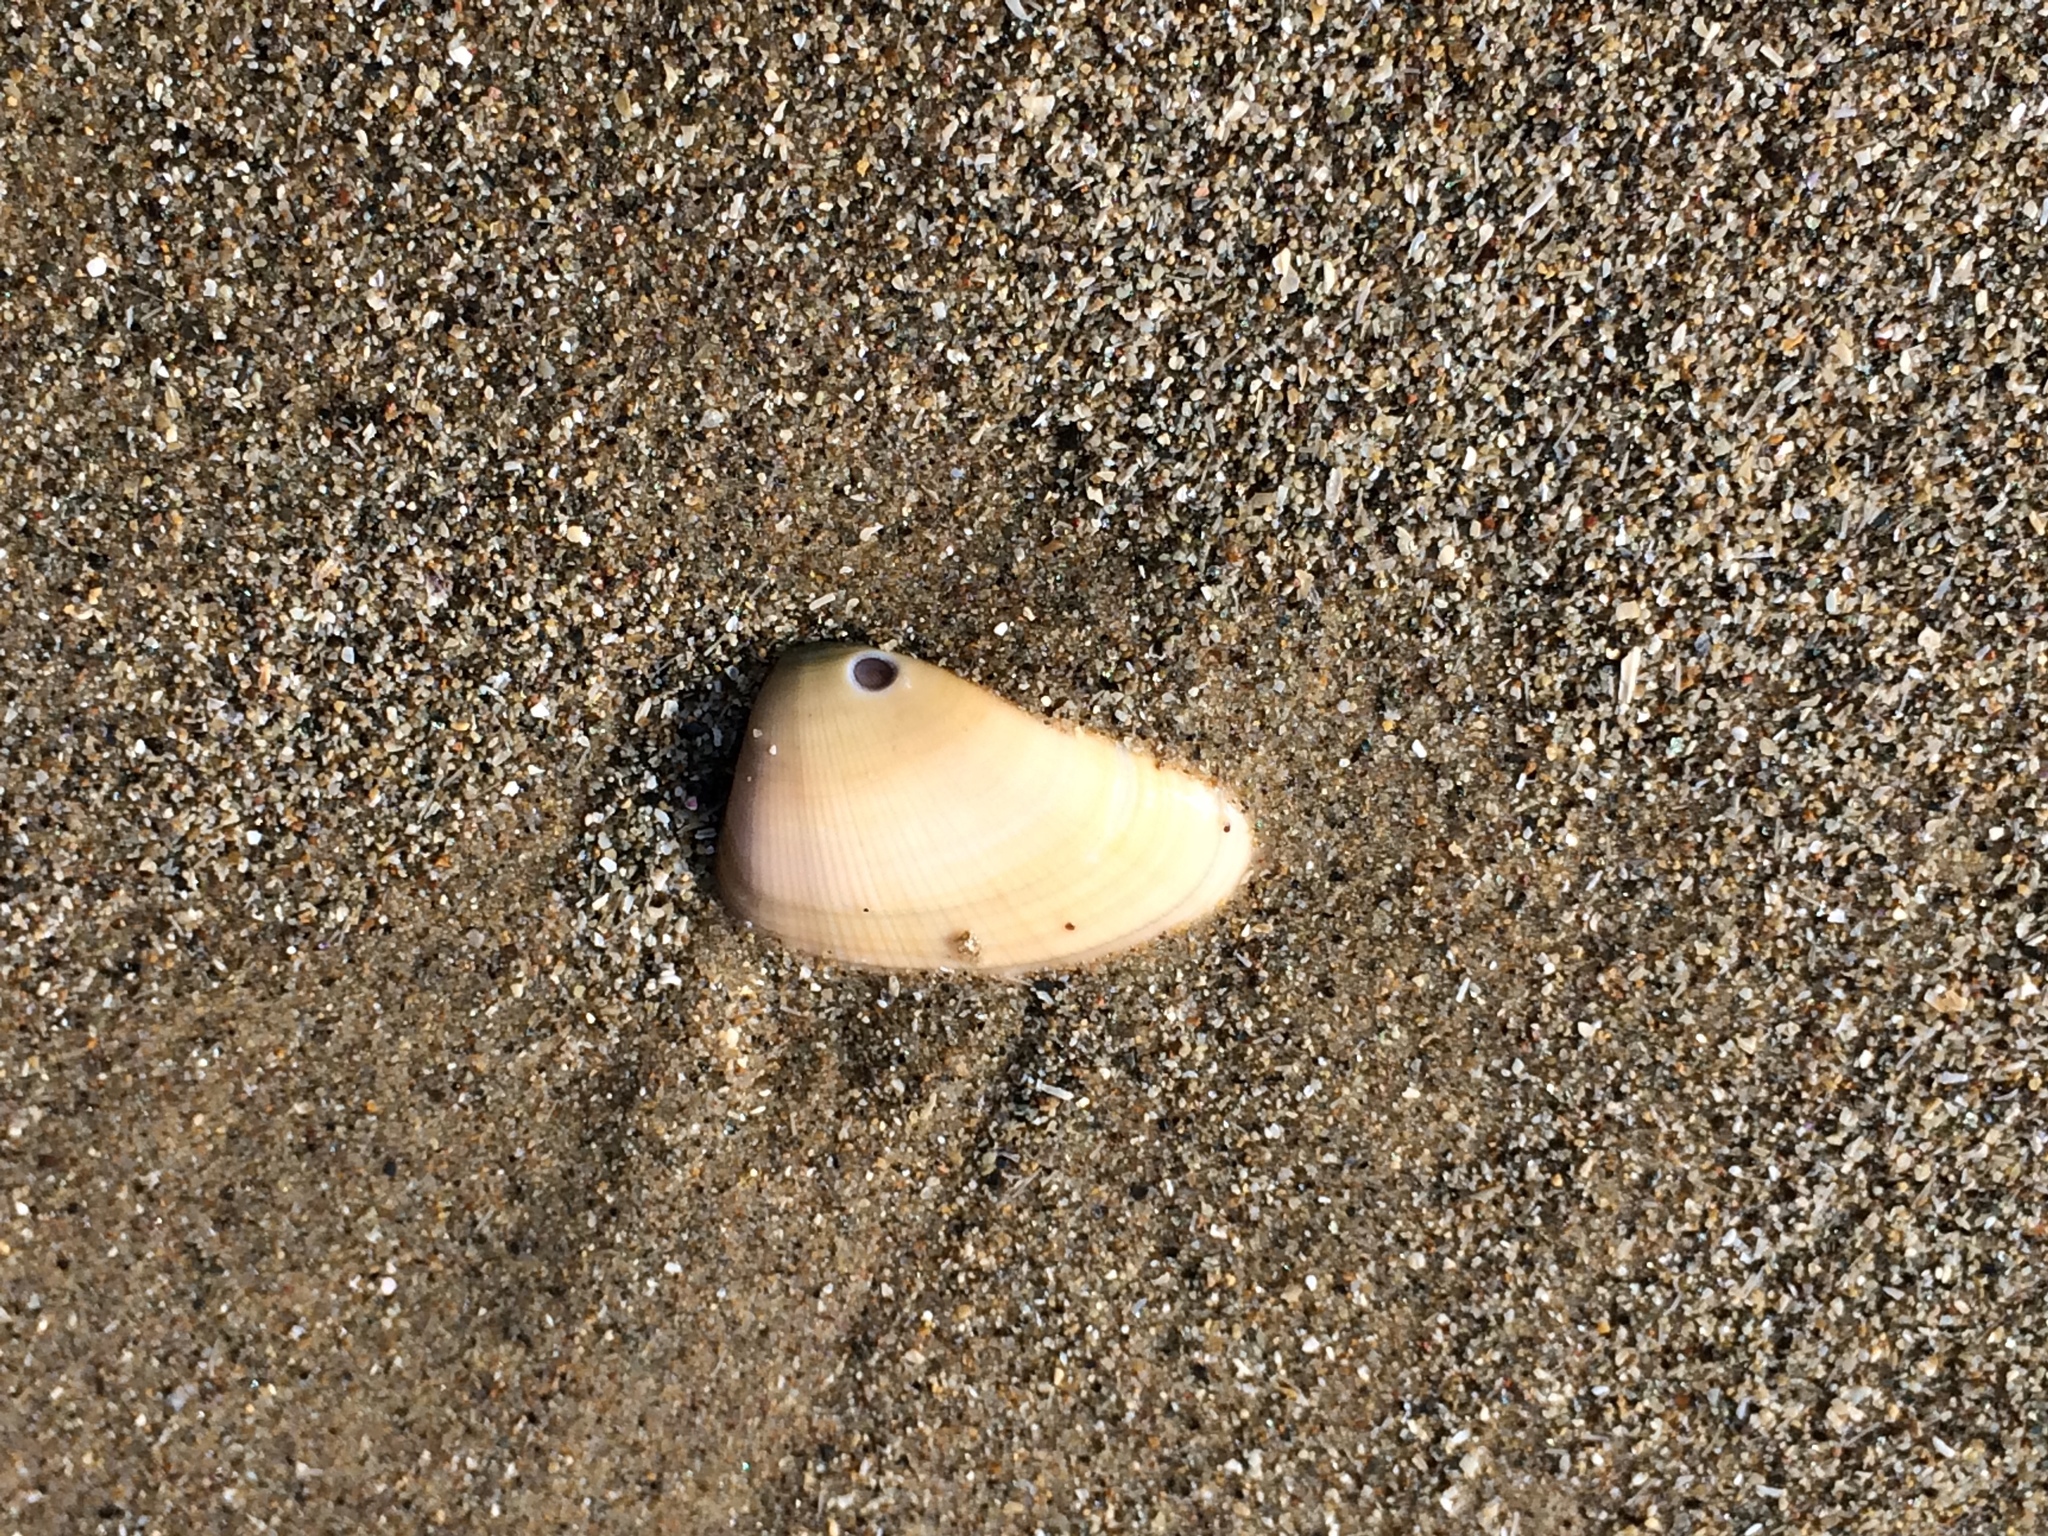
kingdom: Animalia
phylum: Mollusca
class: Bivalvia
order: Cardiida
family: Donacidae
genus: Donax
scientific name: Donax gouldii
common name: Gould beanclam
